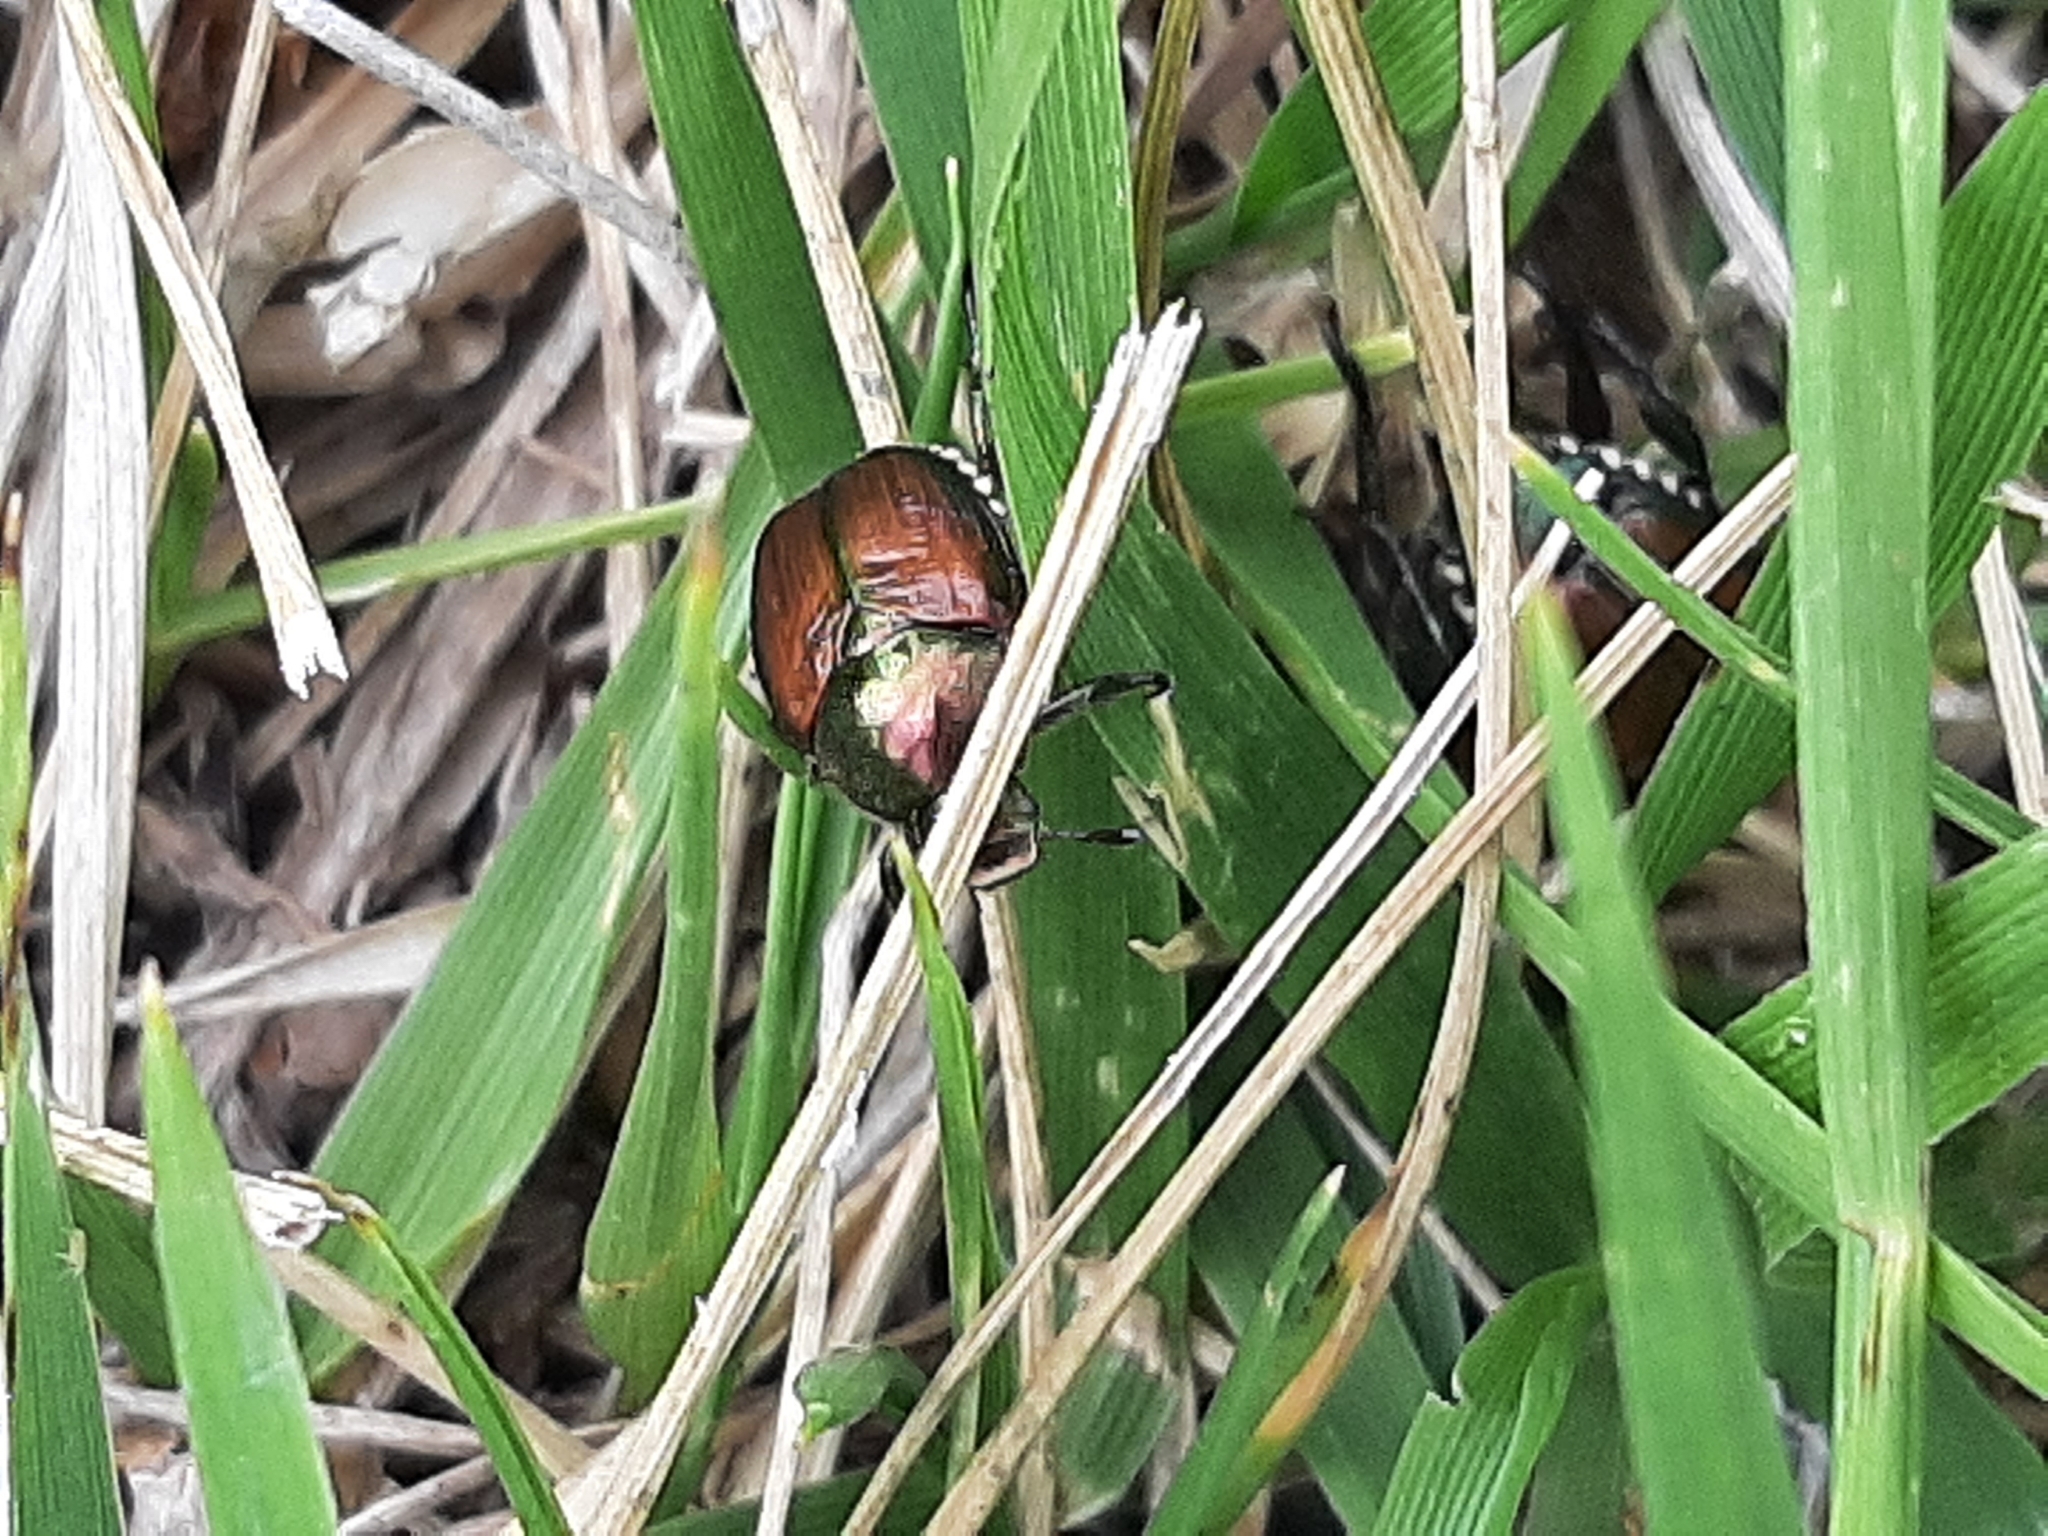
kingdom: Animalia
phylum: Arthropoda
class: Insecta
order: Coleoptera
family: Scarabaeidae
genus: Popillia
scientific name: Popillia japonica
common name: Japanese beetle
